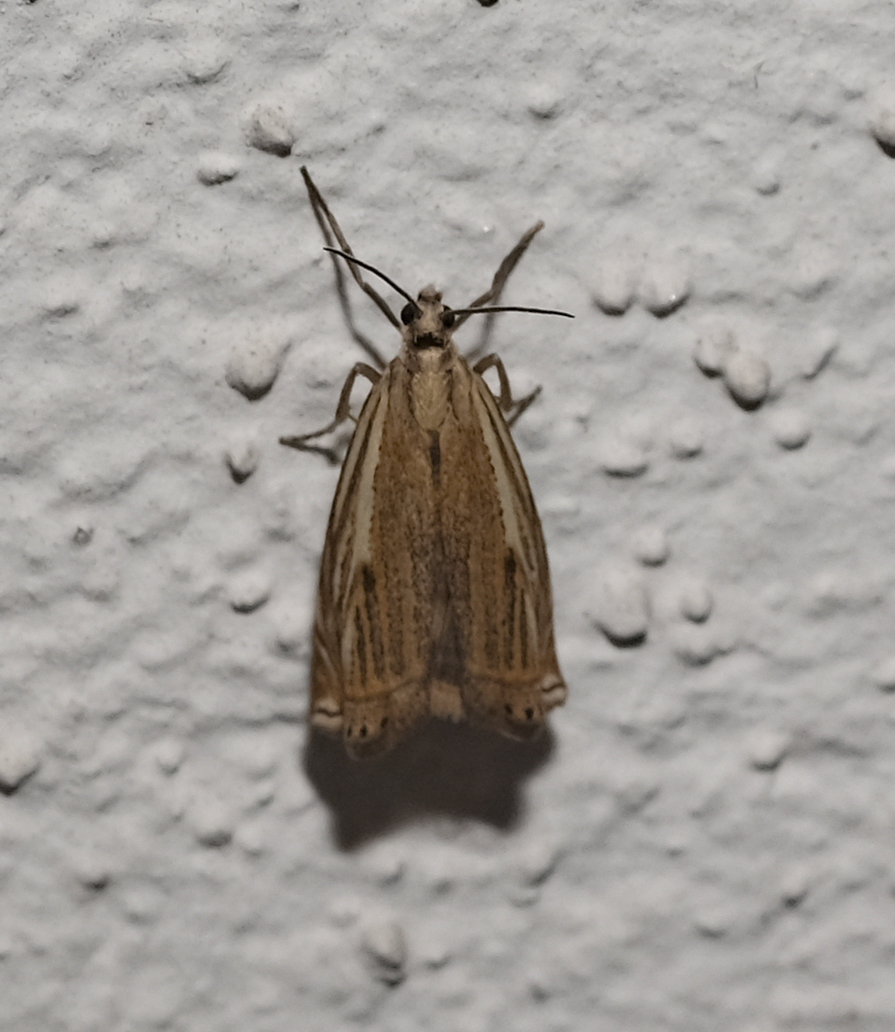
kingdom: Animalia
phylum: Arthropoda
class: Insecta
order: Lepidoptera
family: Crambidae
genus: Crambus
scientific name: Crambus nemorella
